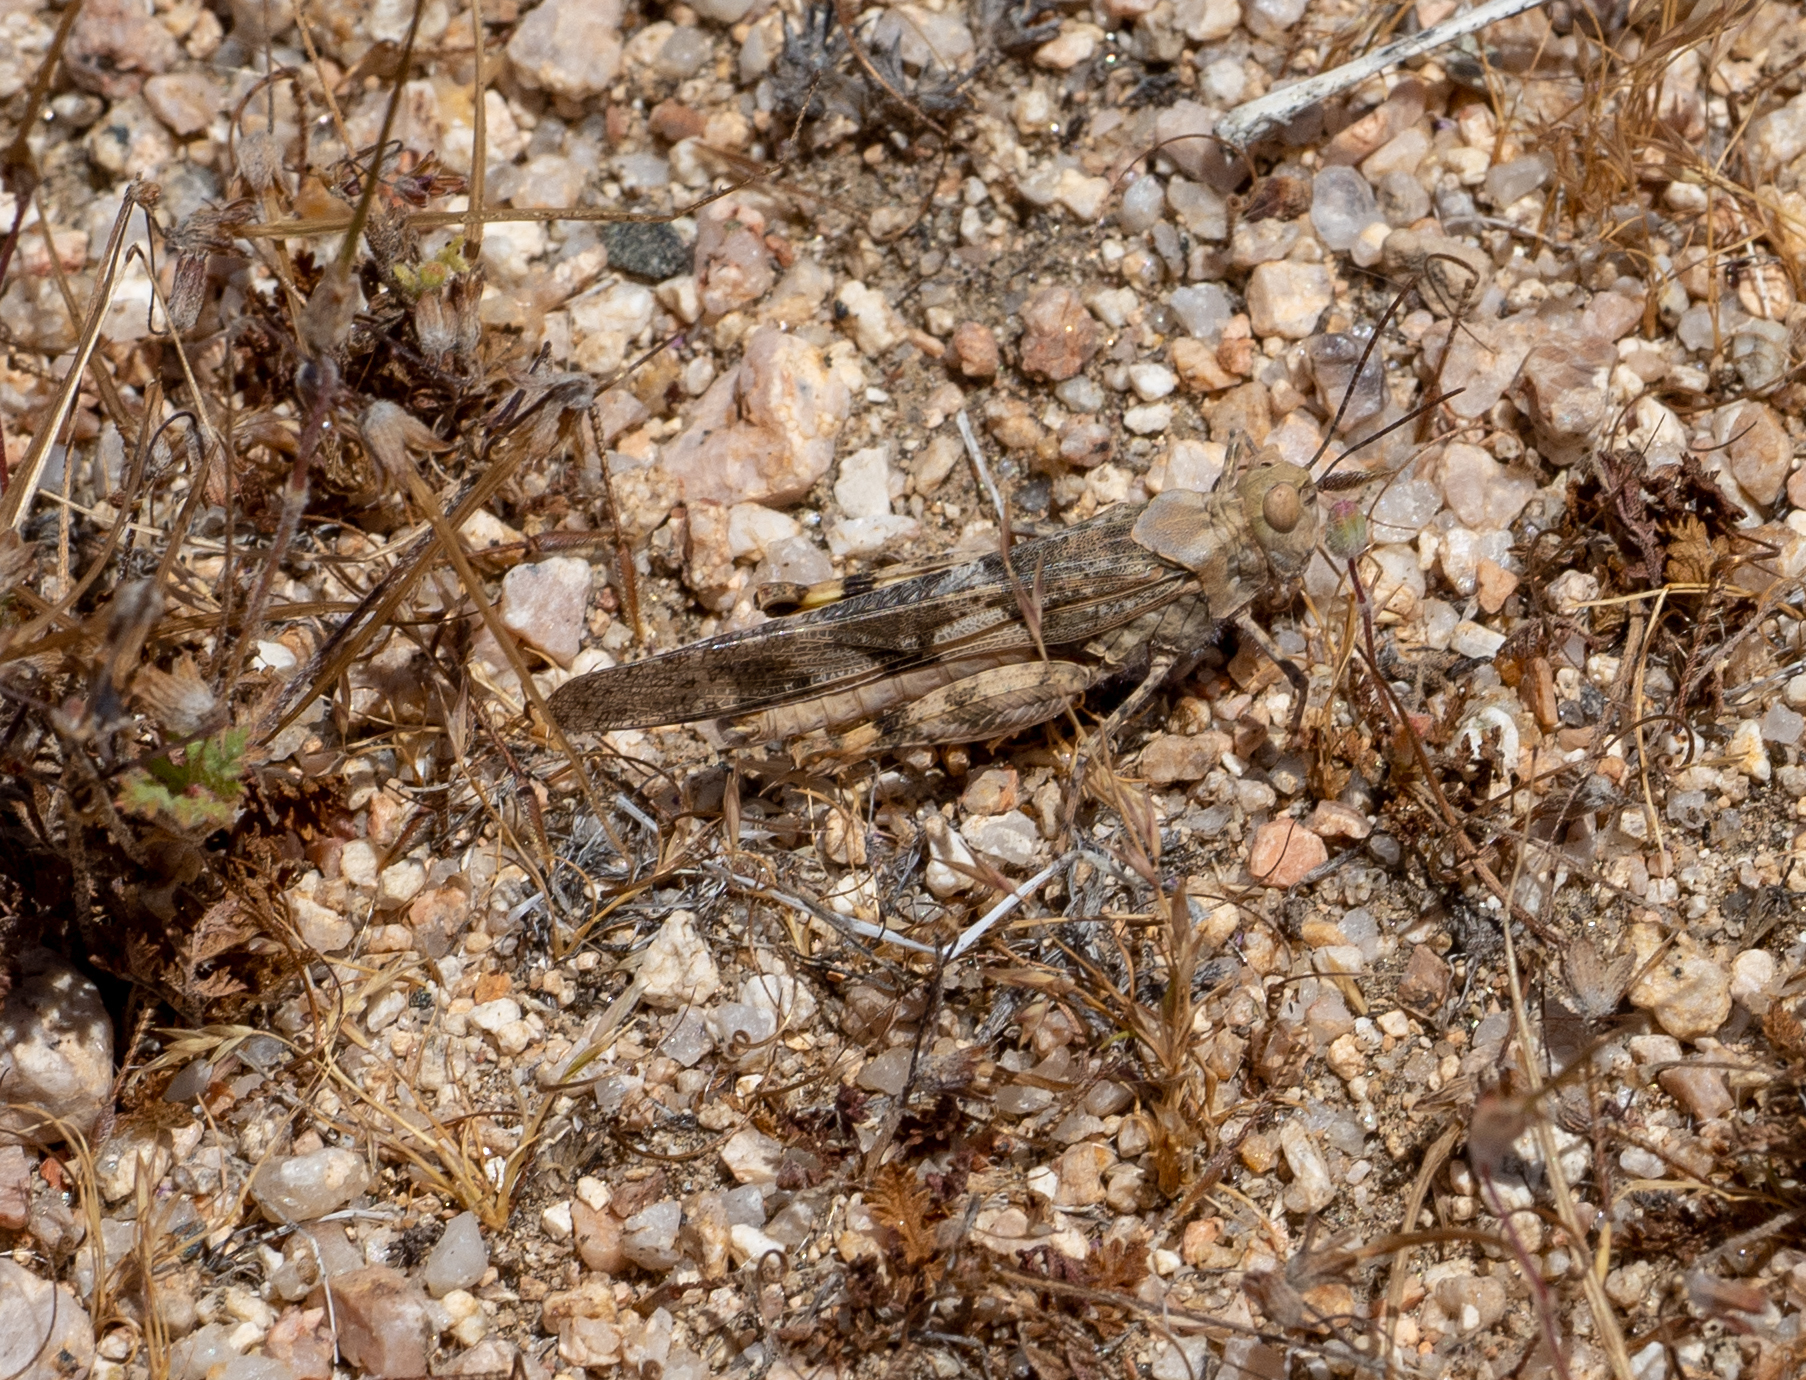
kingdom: Animalia
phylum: Arthropoda
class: Insecta
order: Orthoptera
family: Acrididae
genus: Trimerotropis
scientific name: Trimerotropis pallidipennis
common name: Pallid-winged grasshopper
